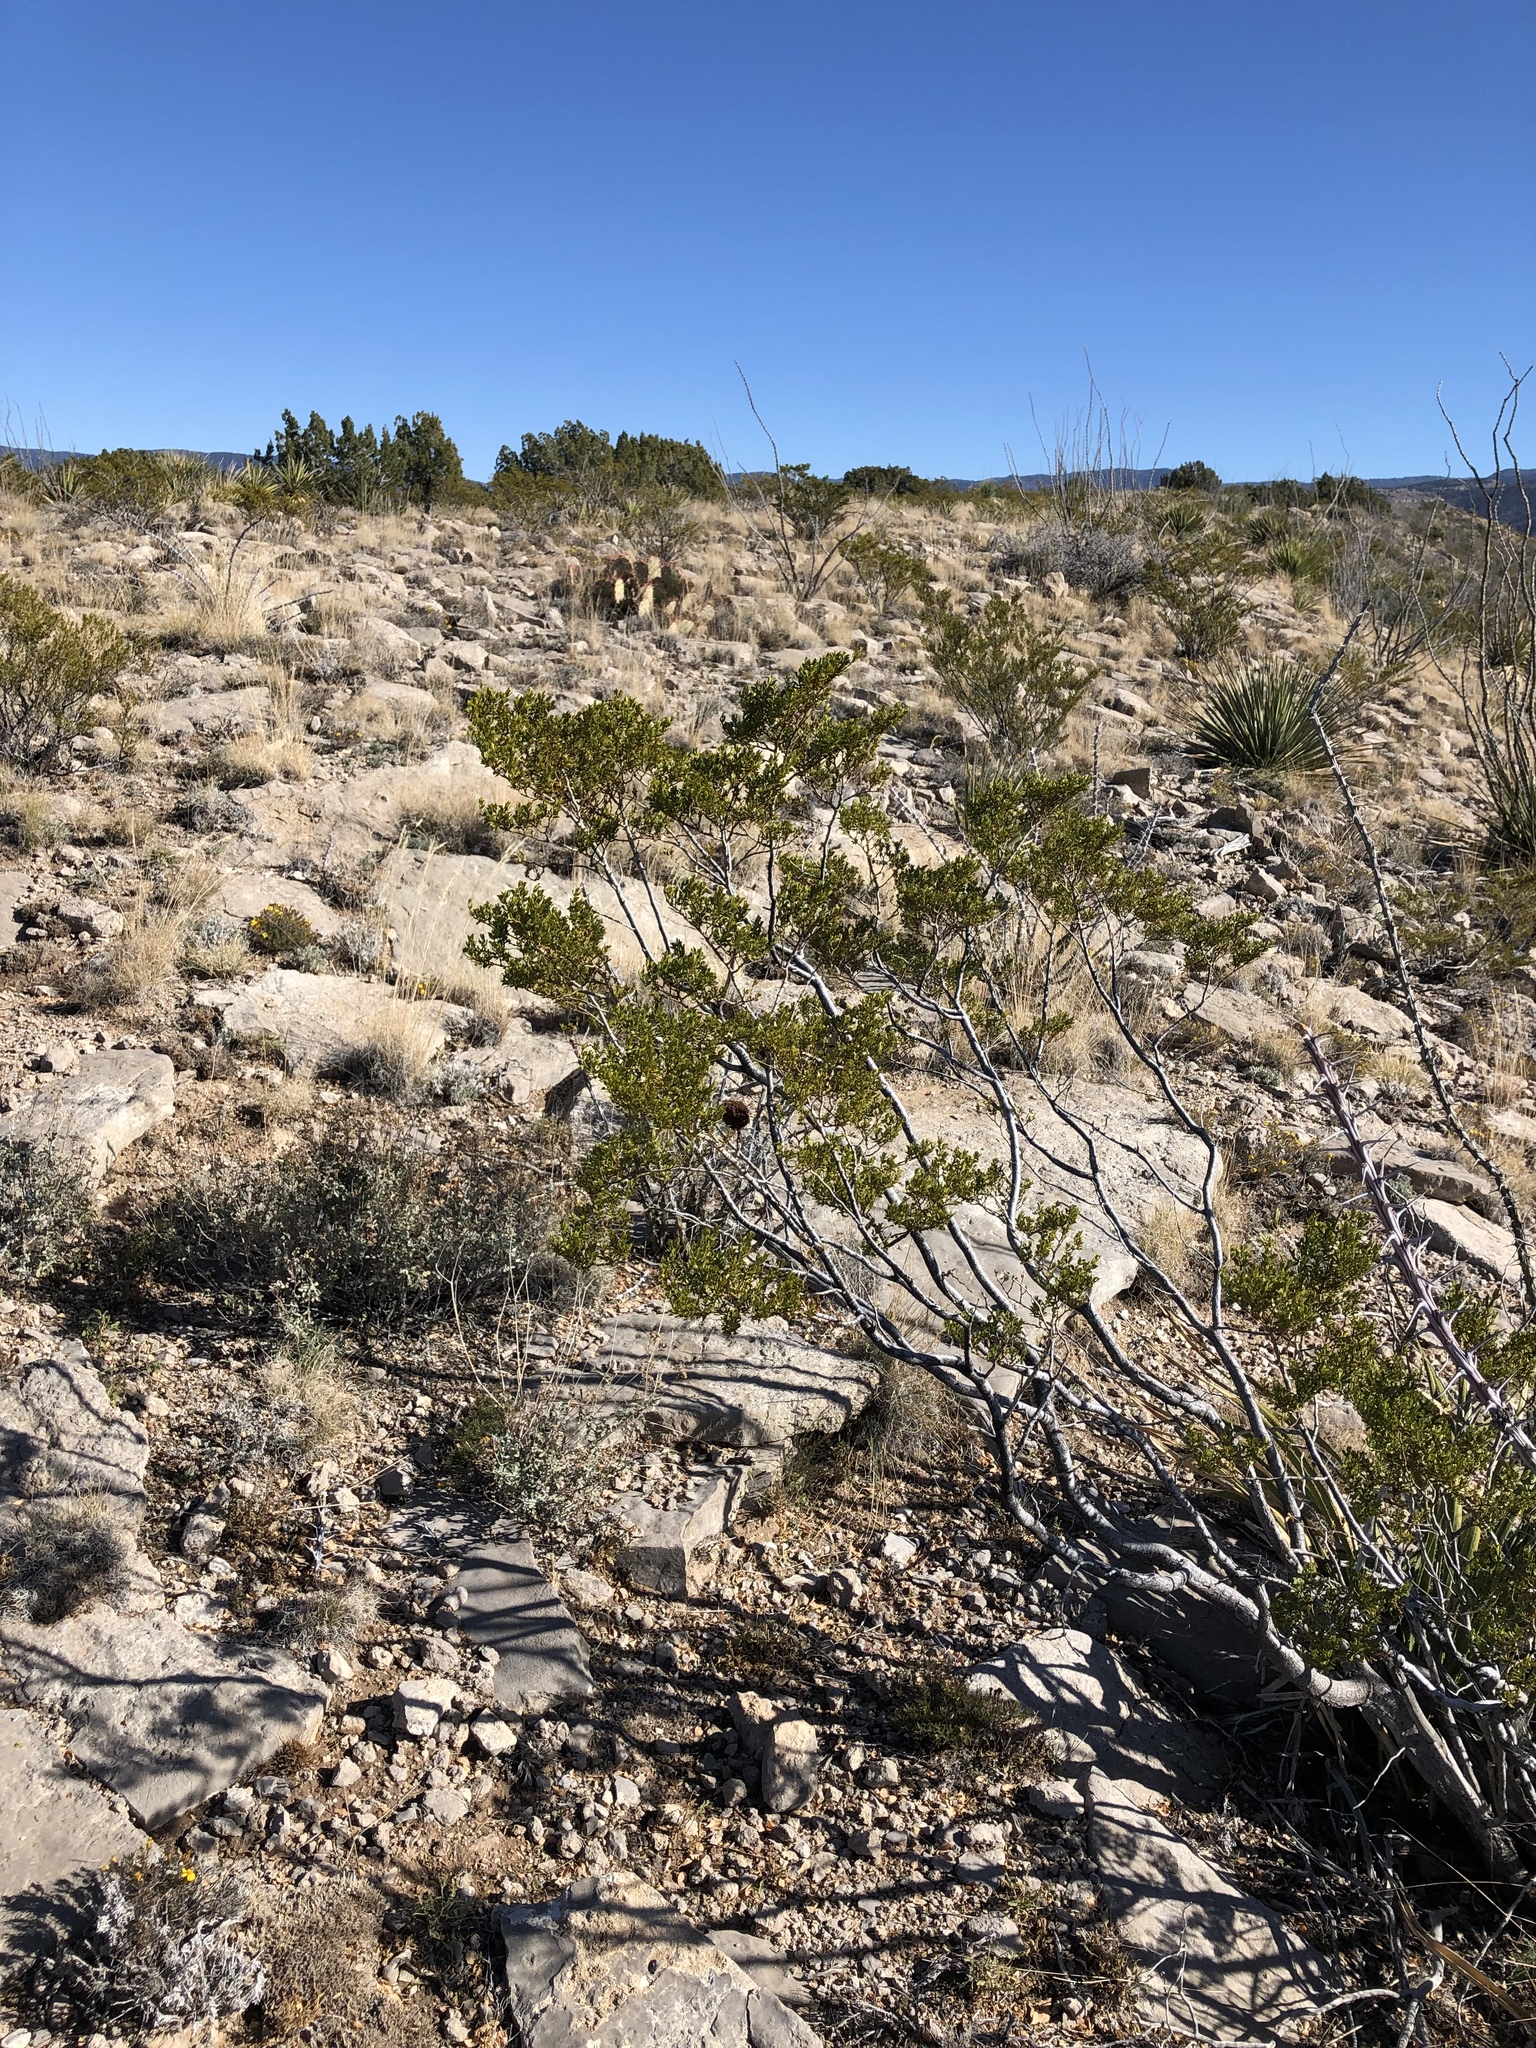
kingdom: Plantae
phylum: Tracheophyta
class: Magnoliopsida
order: Zygophyllales
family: Zygophyllaceae
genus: Larrea
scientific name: Larrea tridentata
